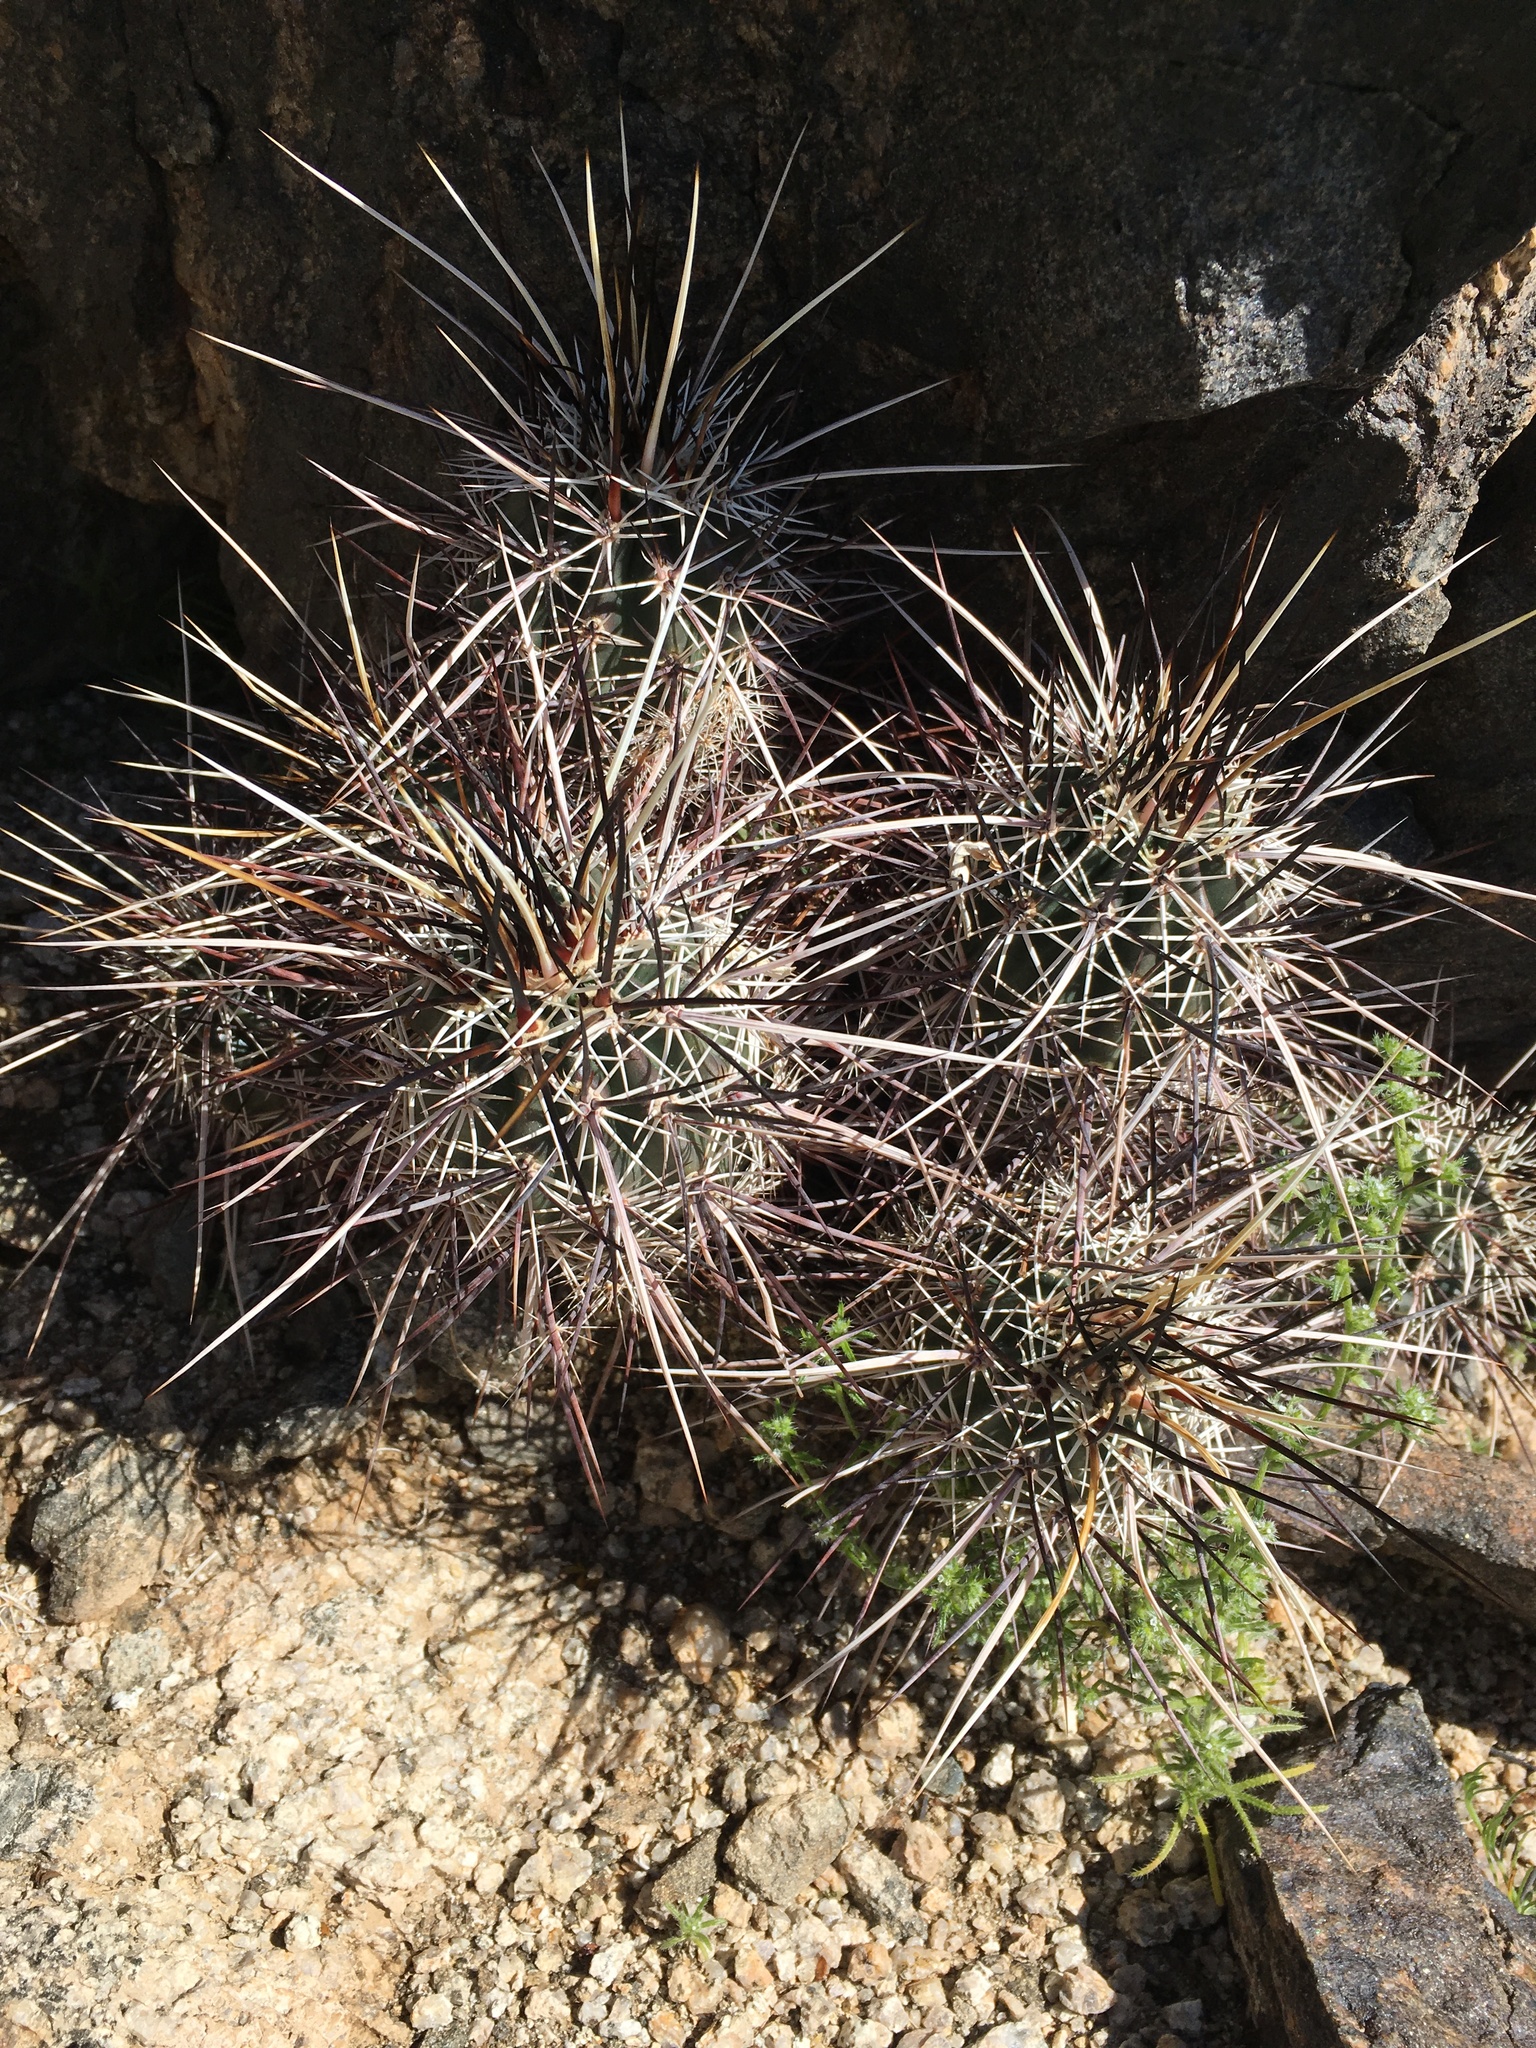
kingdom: Plantae
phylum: Tracheophyta
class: Magnoliopsida
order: Caryophyllales
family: Cactaceae
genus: Echinocereus
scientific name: Echinocereus engelmannii
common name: Engelmann's hedgehog cactus
